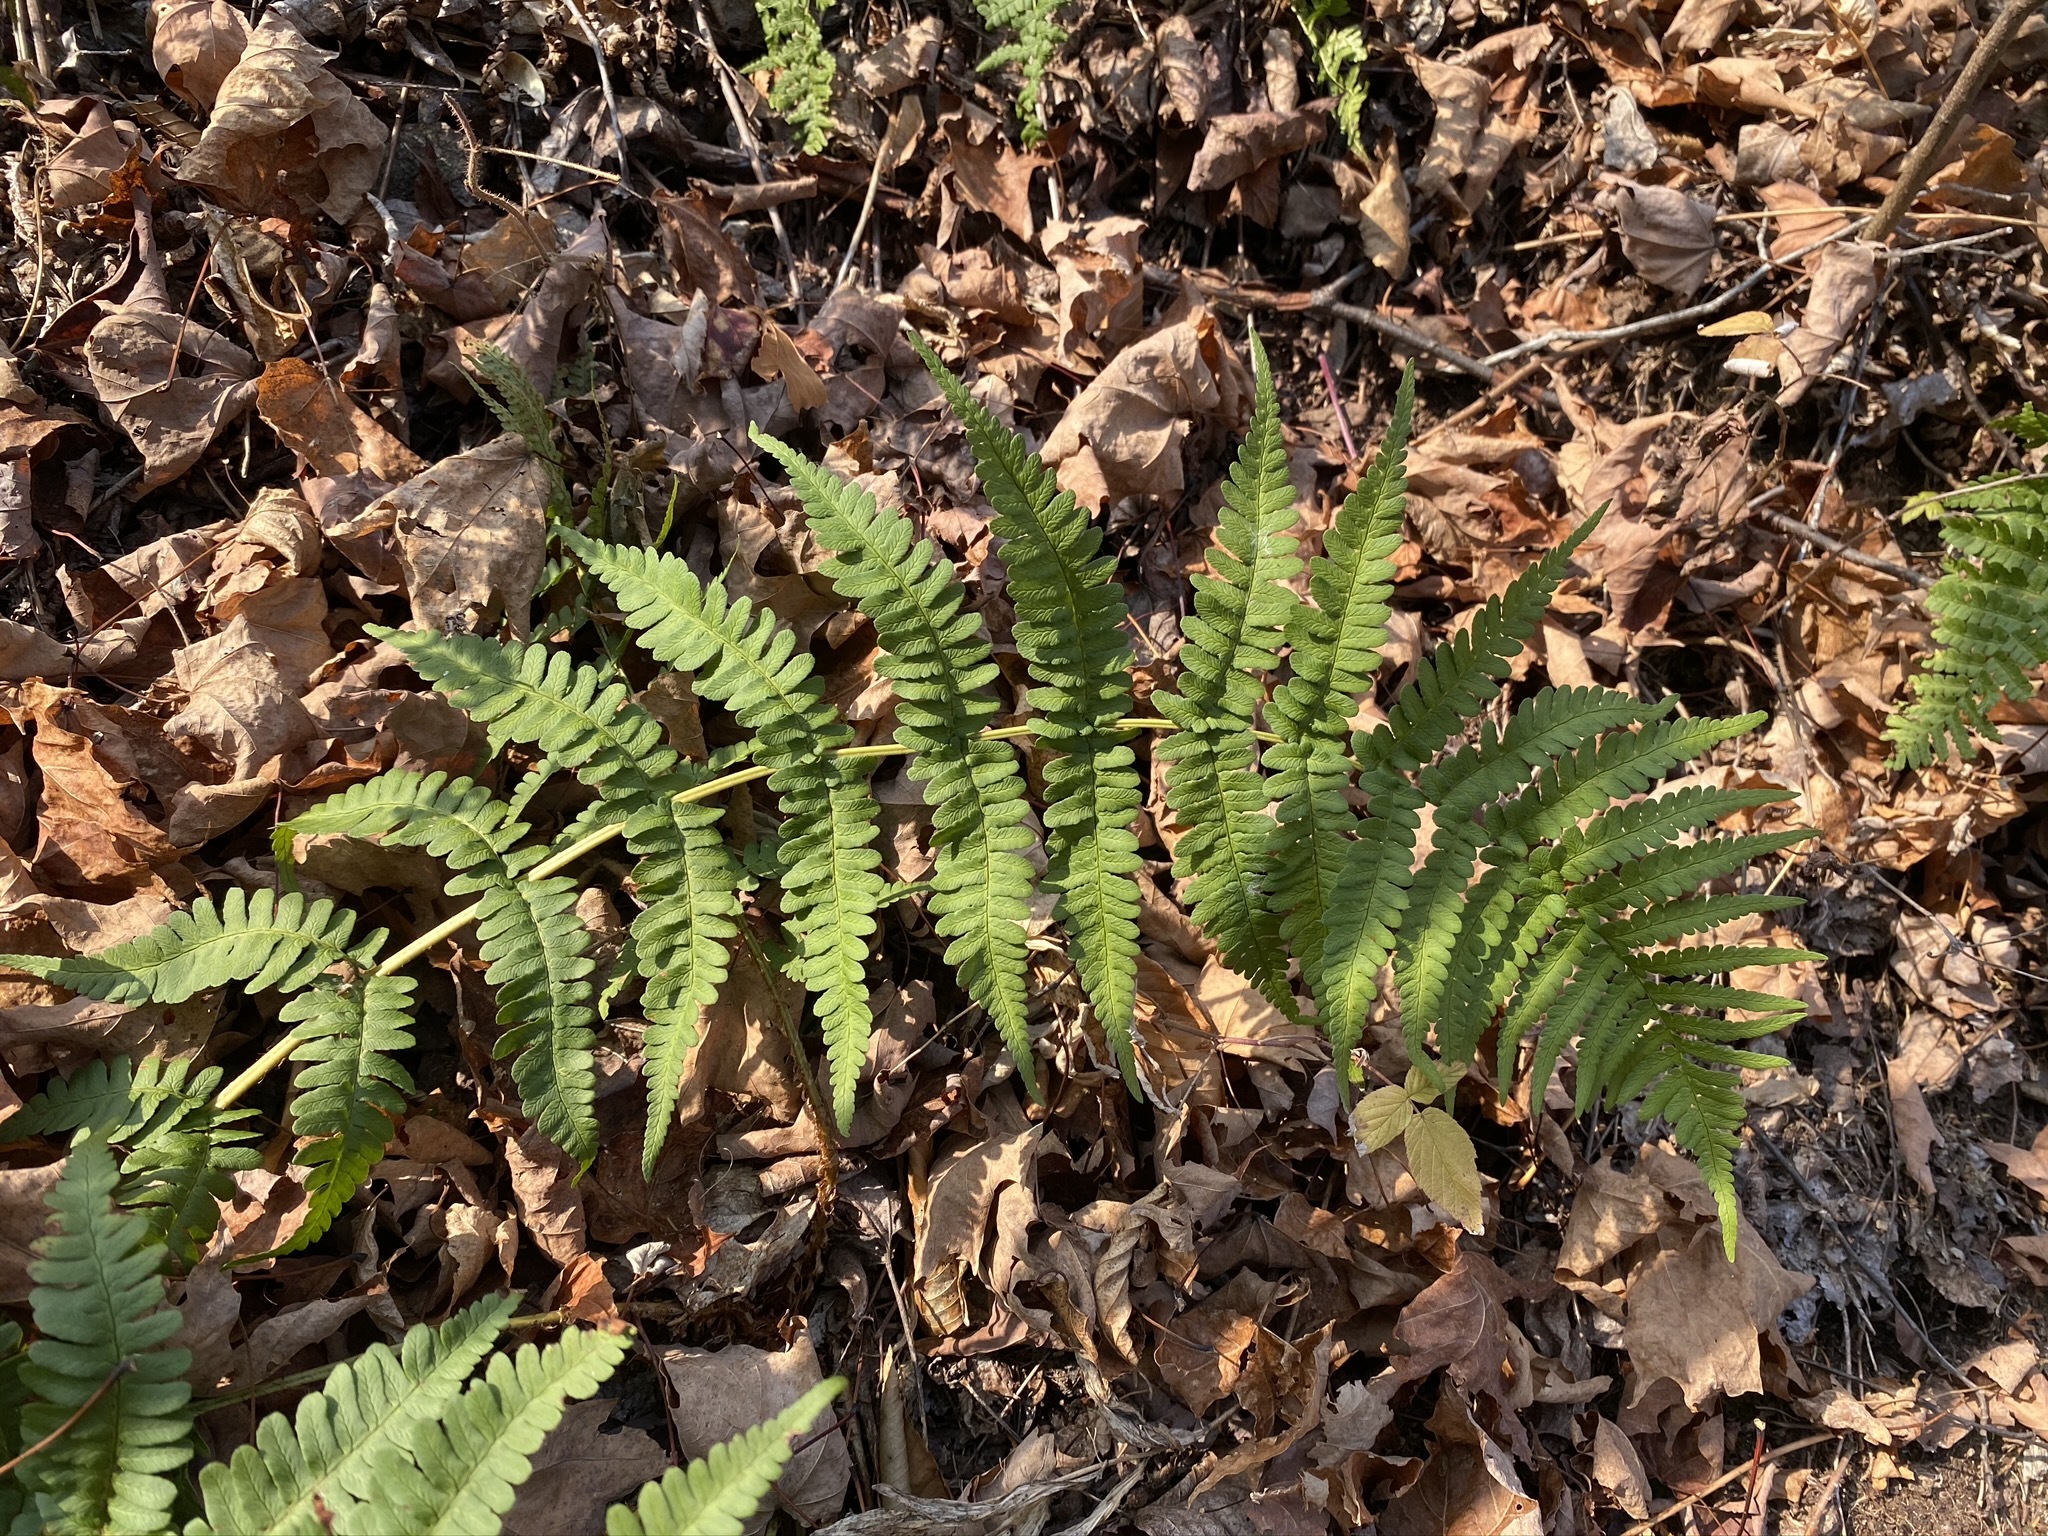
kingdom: Plantae
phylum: Tracheophyta
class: Polypodiopsida
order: Polypodiales
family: Dryopteridaceae
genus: Dryopteris
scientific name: Dryopteris marginalis
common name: Marginal wood fern
